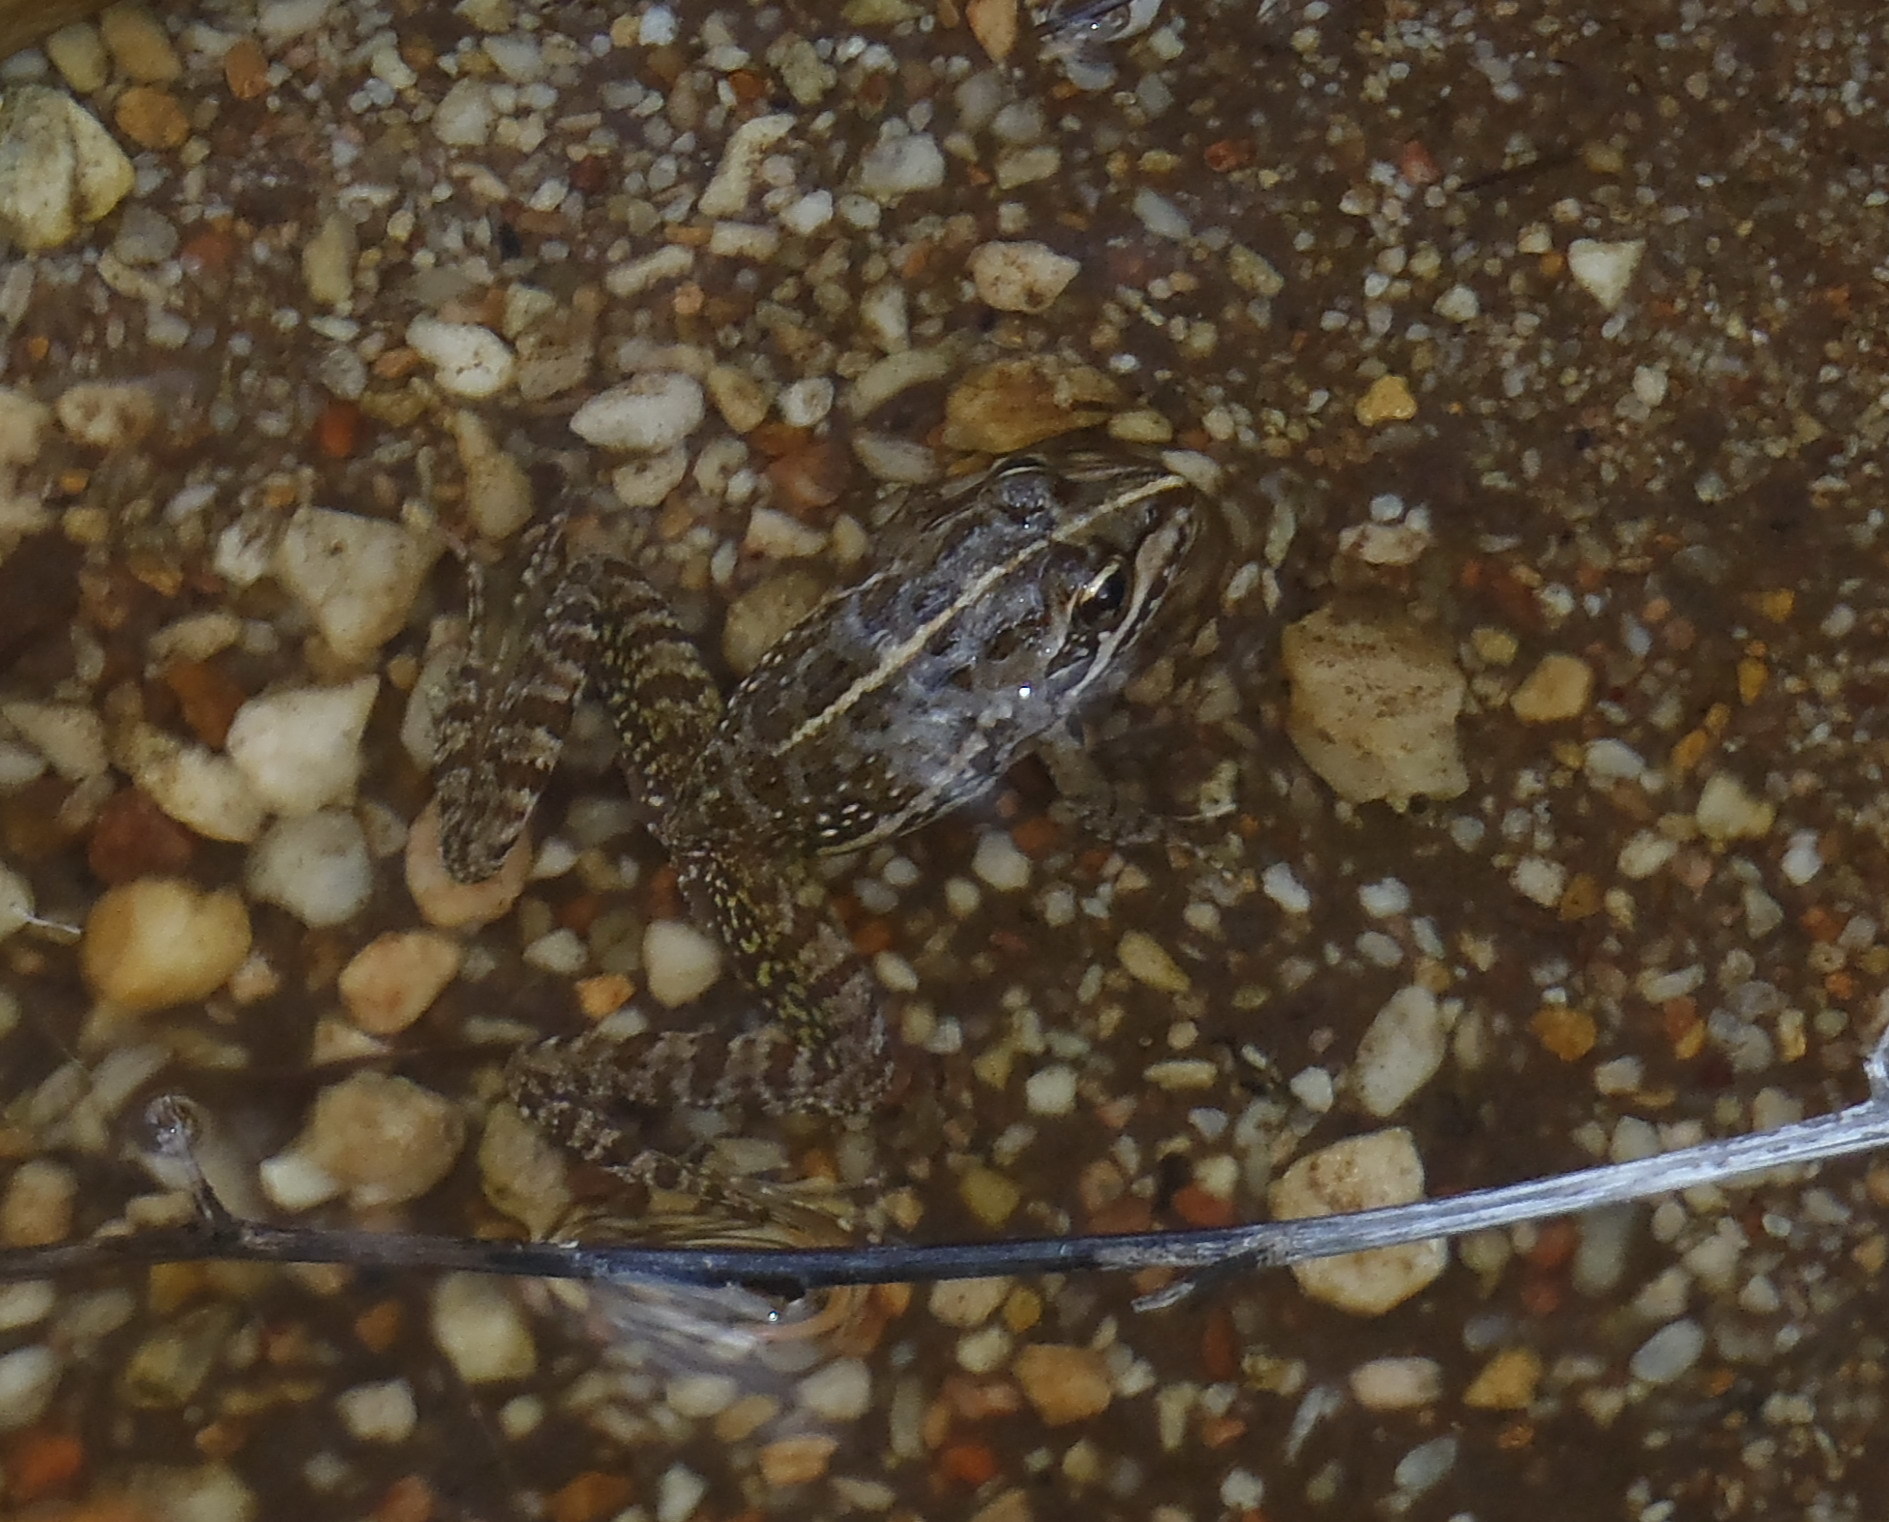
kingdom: Animalia
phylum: Chordata
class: Amphibia
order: Anura
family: Pyxicephalidae
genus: Amietia
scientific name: Amietia fuscigula
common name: Cape rana
